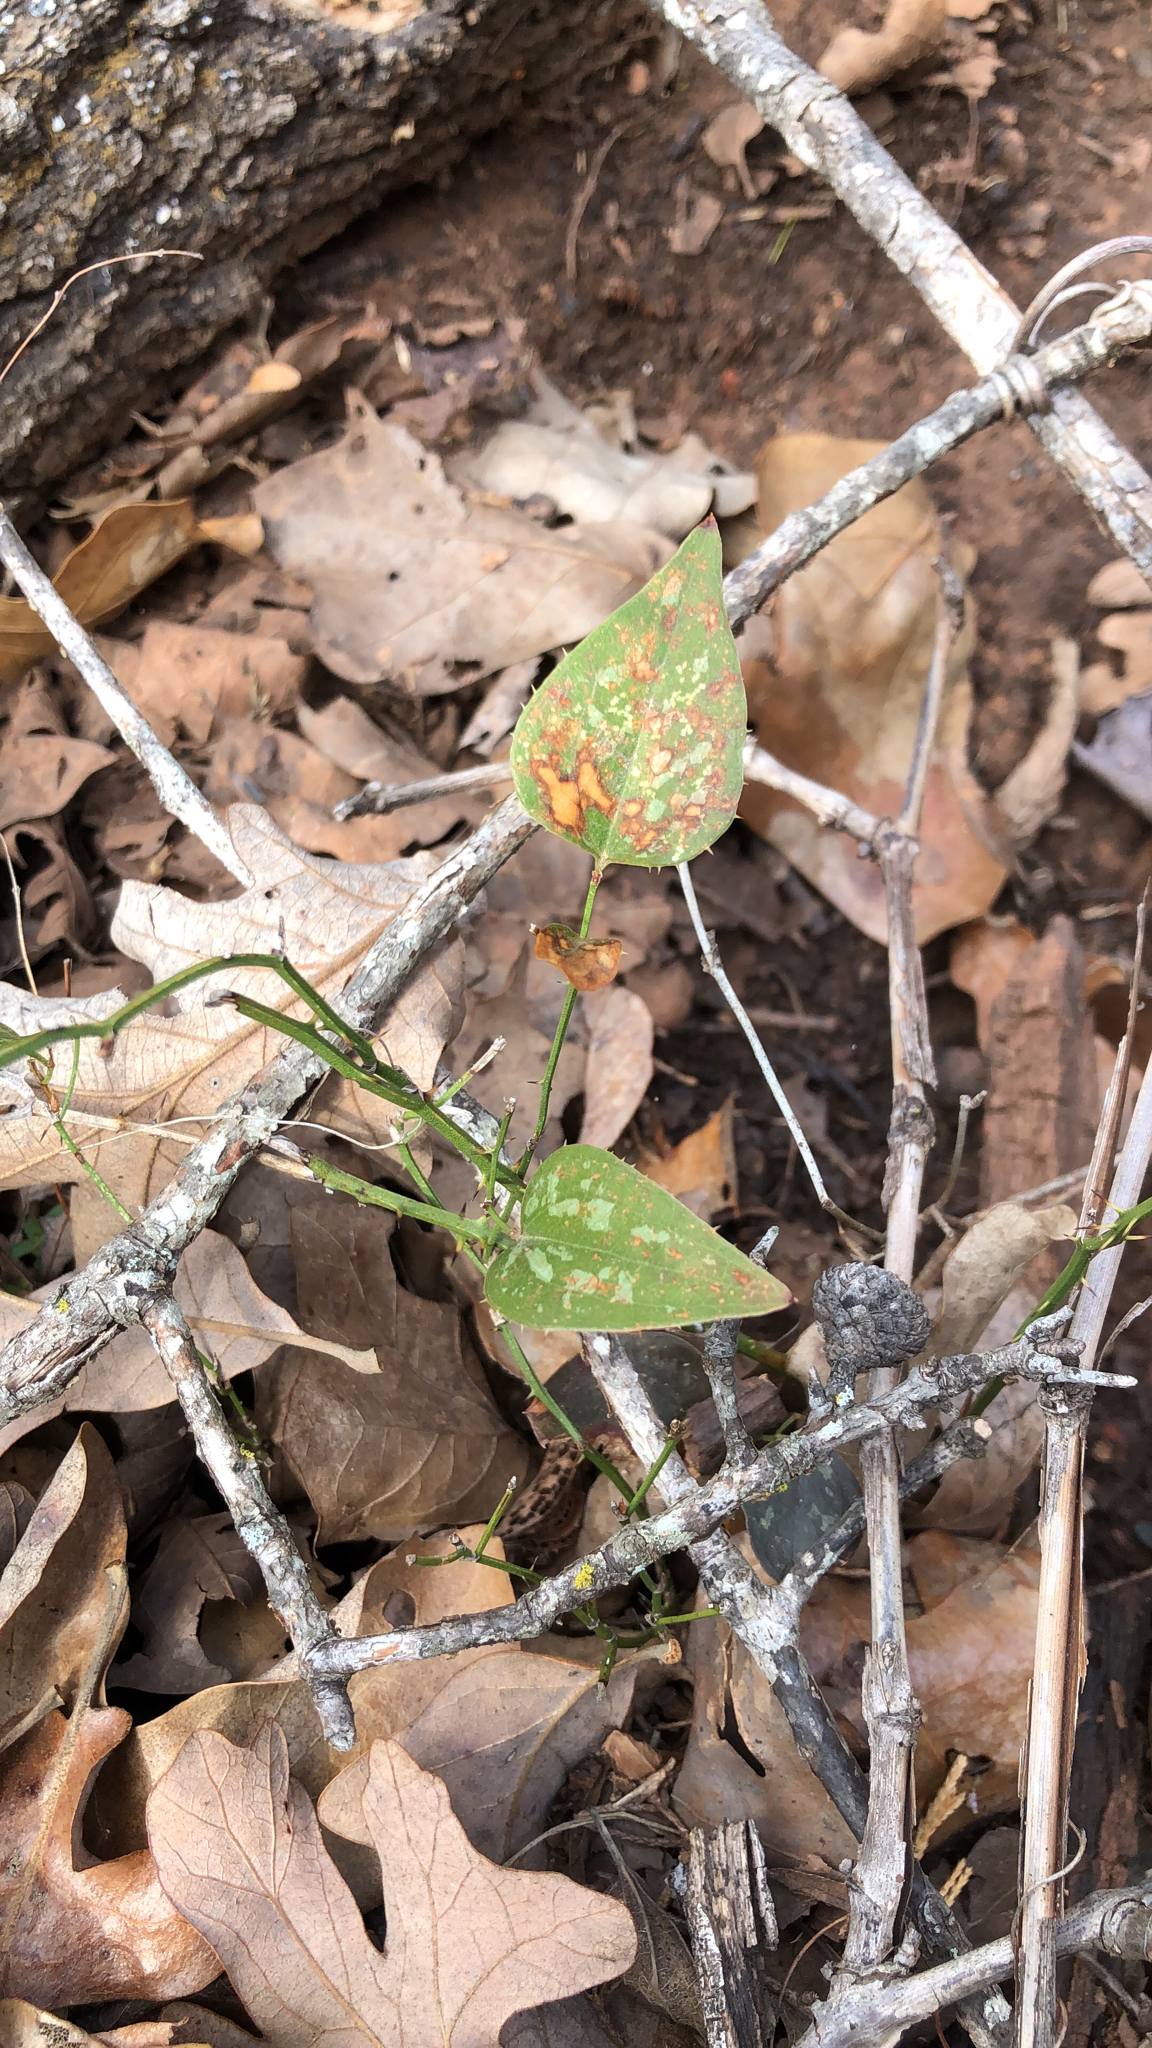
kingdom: Plantae
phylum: Tracheophyta
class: Liliopsida
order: Liliales
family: Smilacaceae
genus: Smilax
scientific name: Smilax bona-nox
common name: Catbrier
